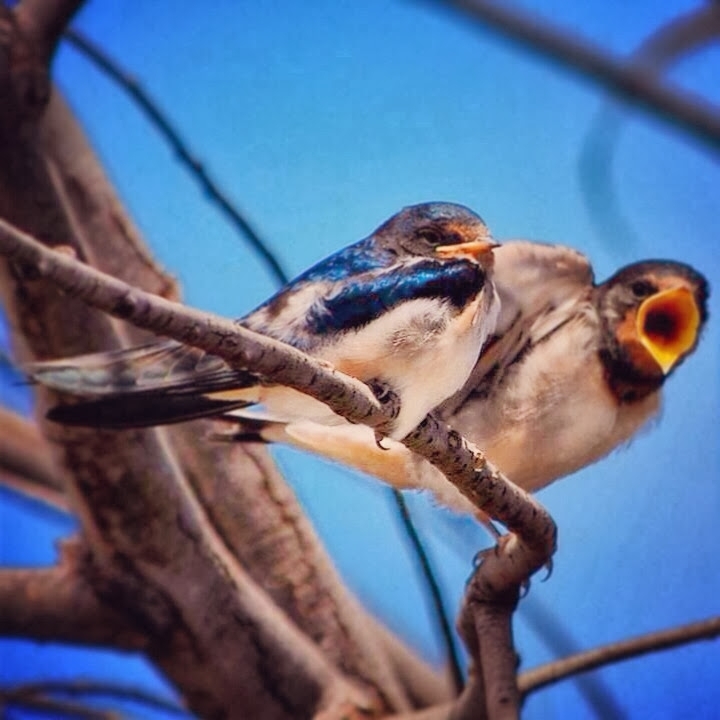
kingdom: Animalia
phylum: Chordata
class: Aves
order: Passeriformes
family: Hirundinidae
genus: Hirundo
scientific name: Hirundo rustica
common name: Barn swallow
